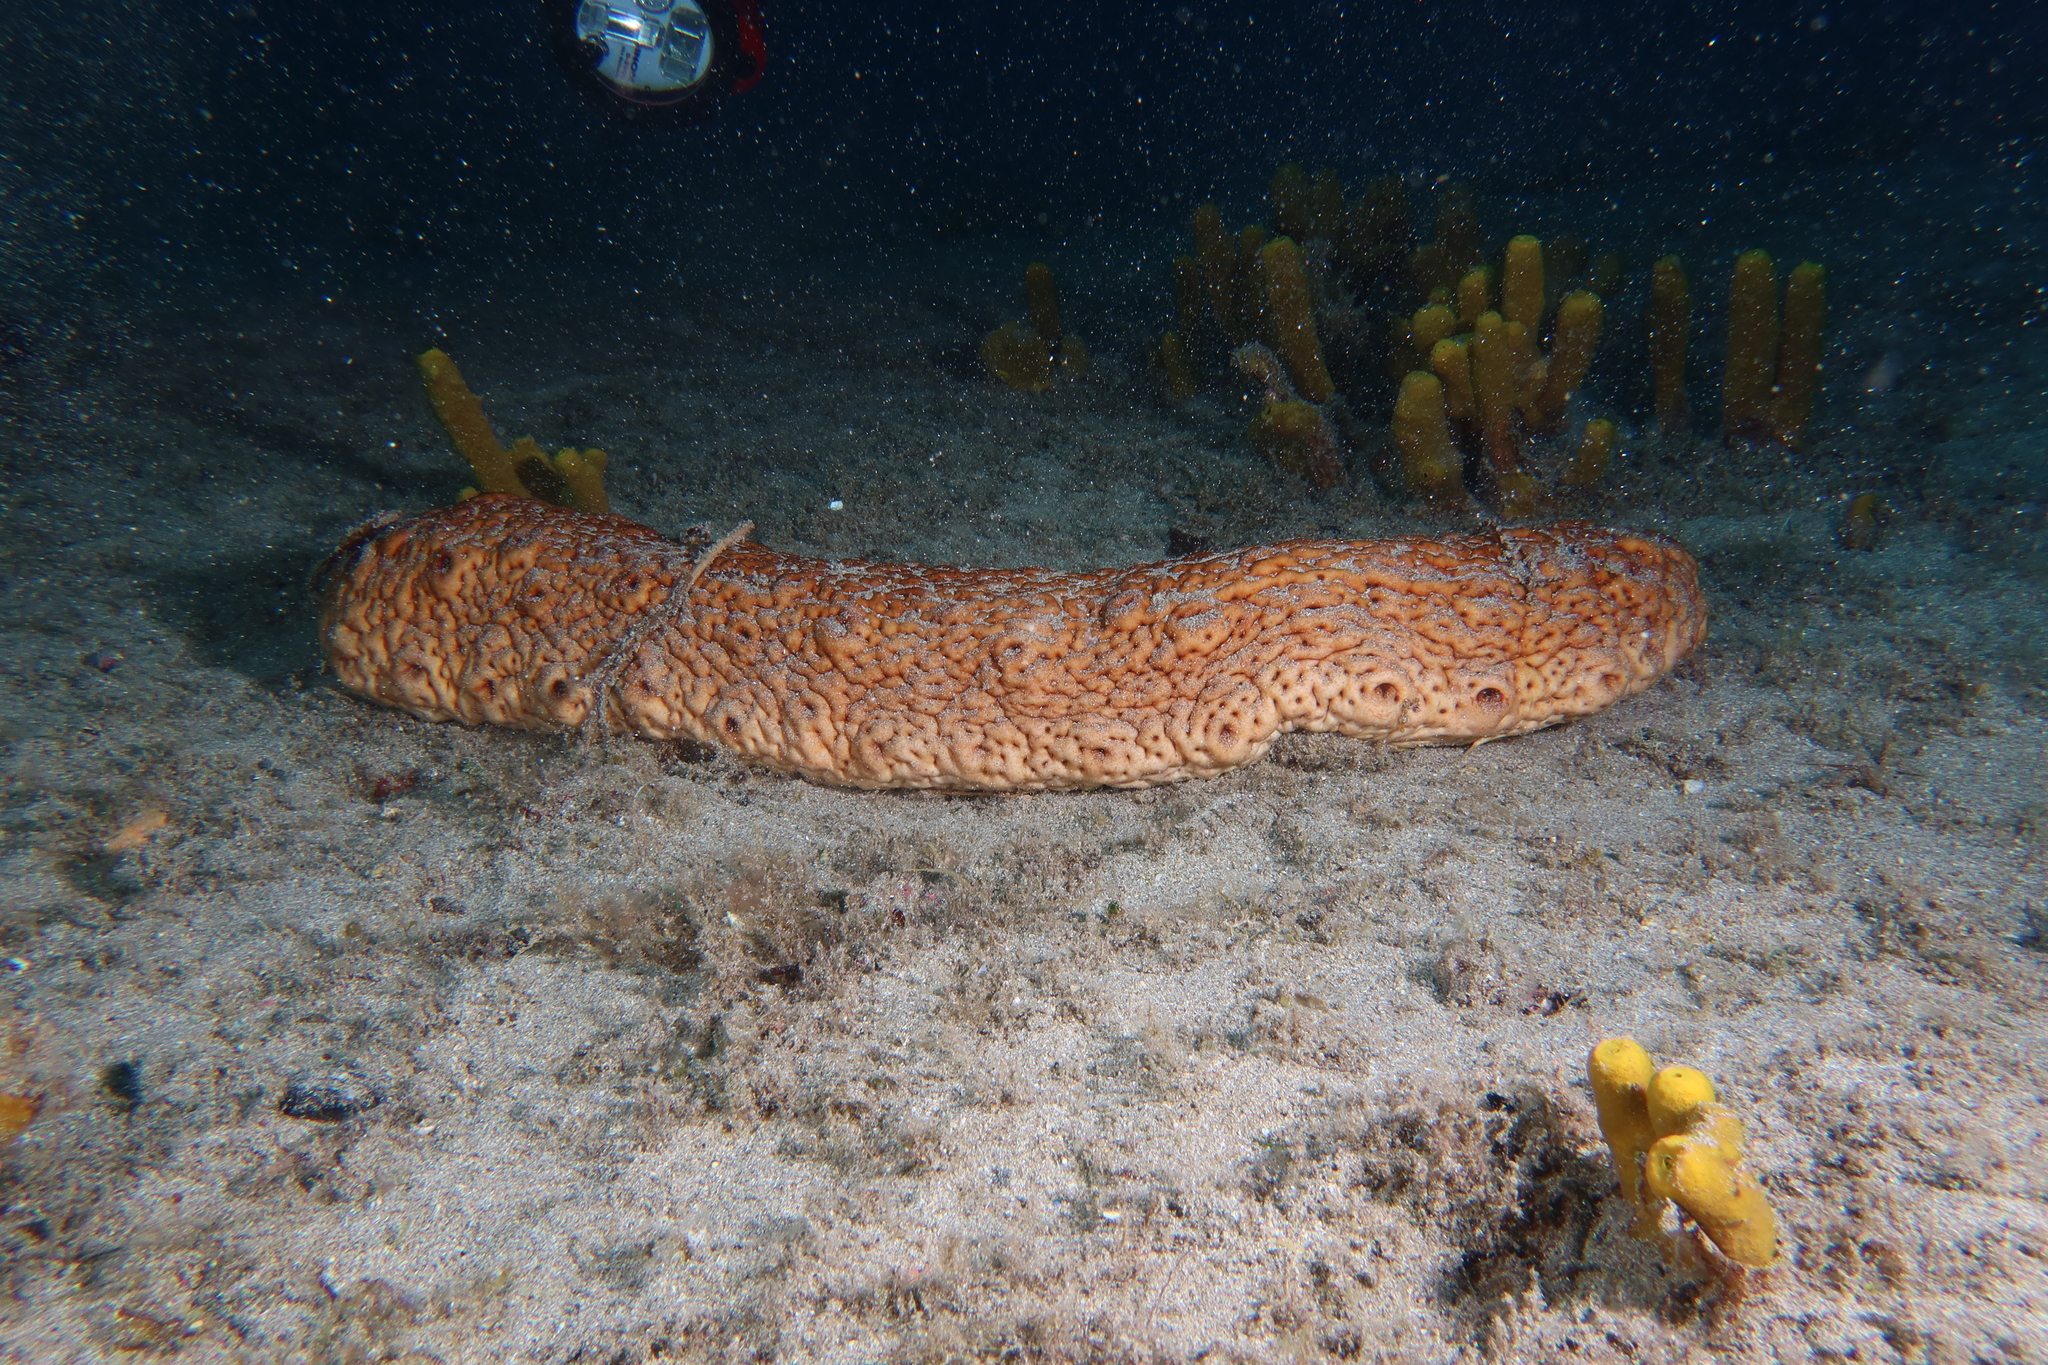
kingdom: Animalia
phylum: Echinodermata
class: Holothuroidea
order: Holothuriida
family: Holothuriidae
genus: Holothuria
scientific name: Holothuria arguinensis
